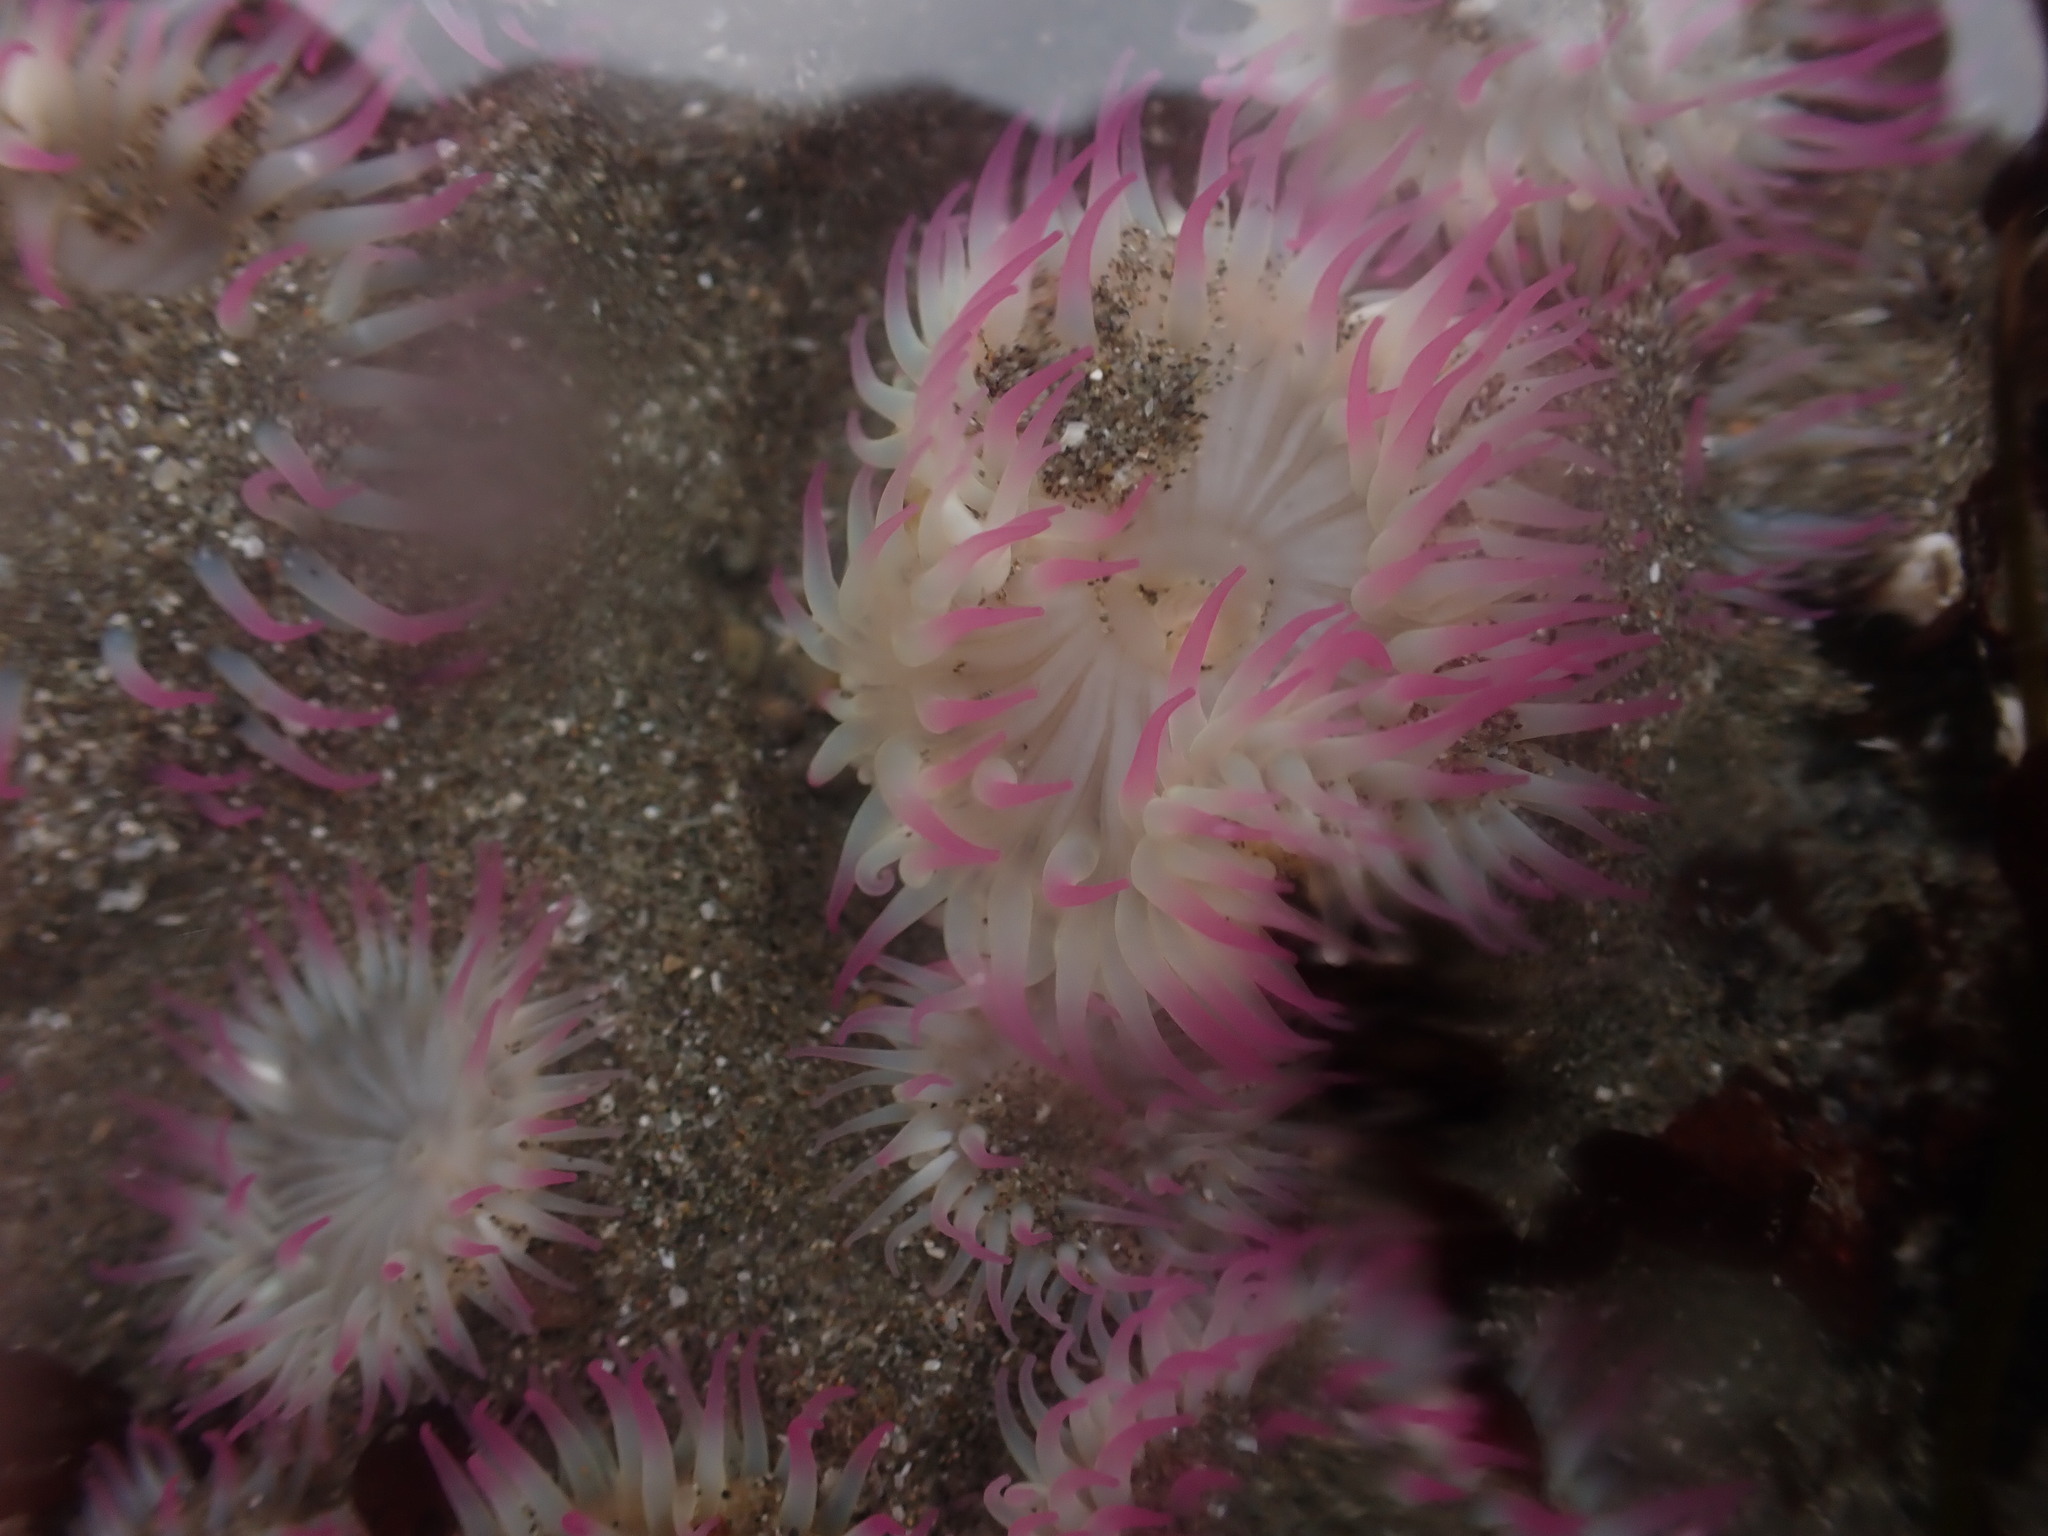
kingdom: Animalia
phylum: Cnidaria
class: Anthozoa
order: Actiniaria
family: Actiniidae
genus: Anthopleura
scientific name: Anthopleura elegantissima
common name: Clonal anemone
